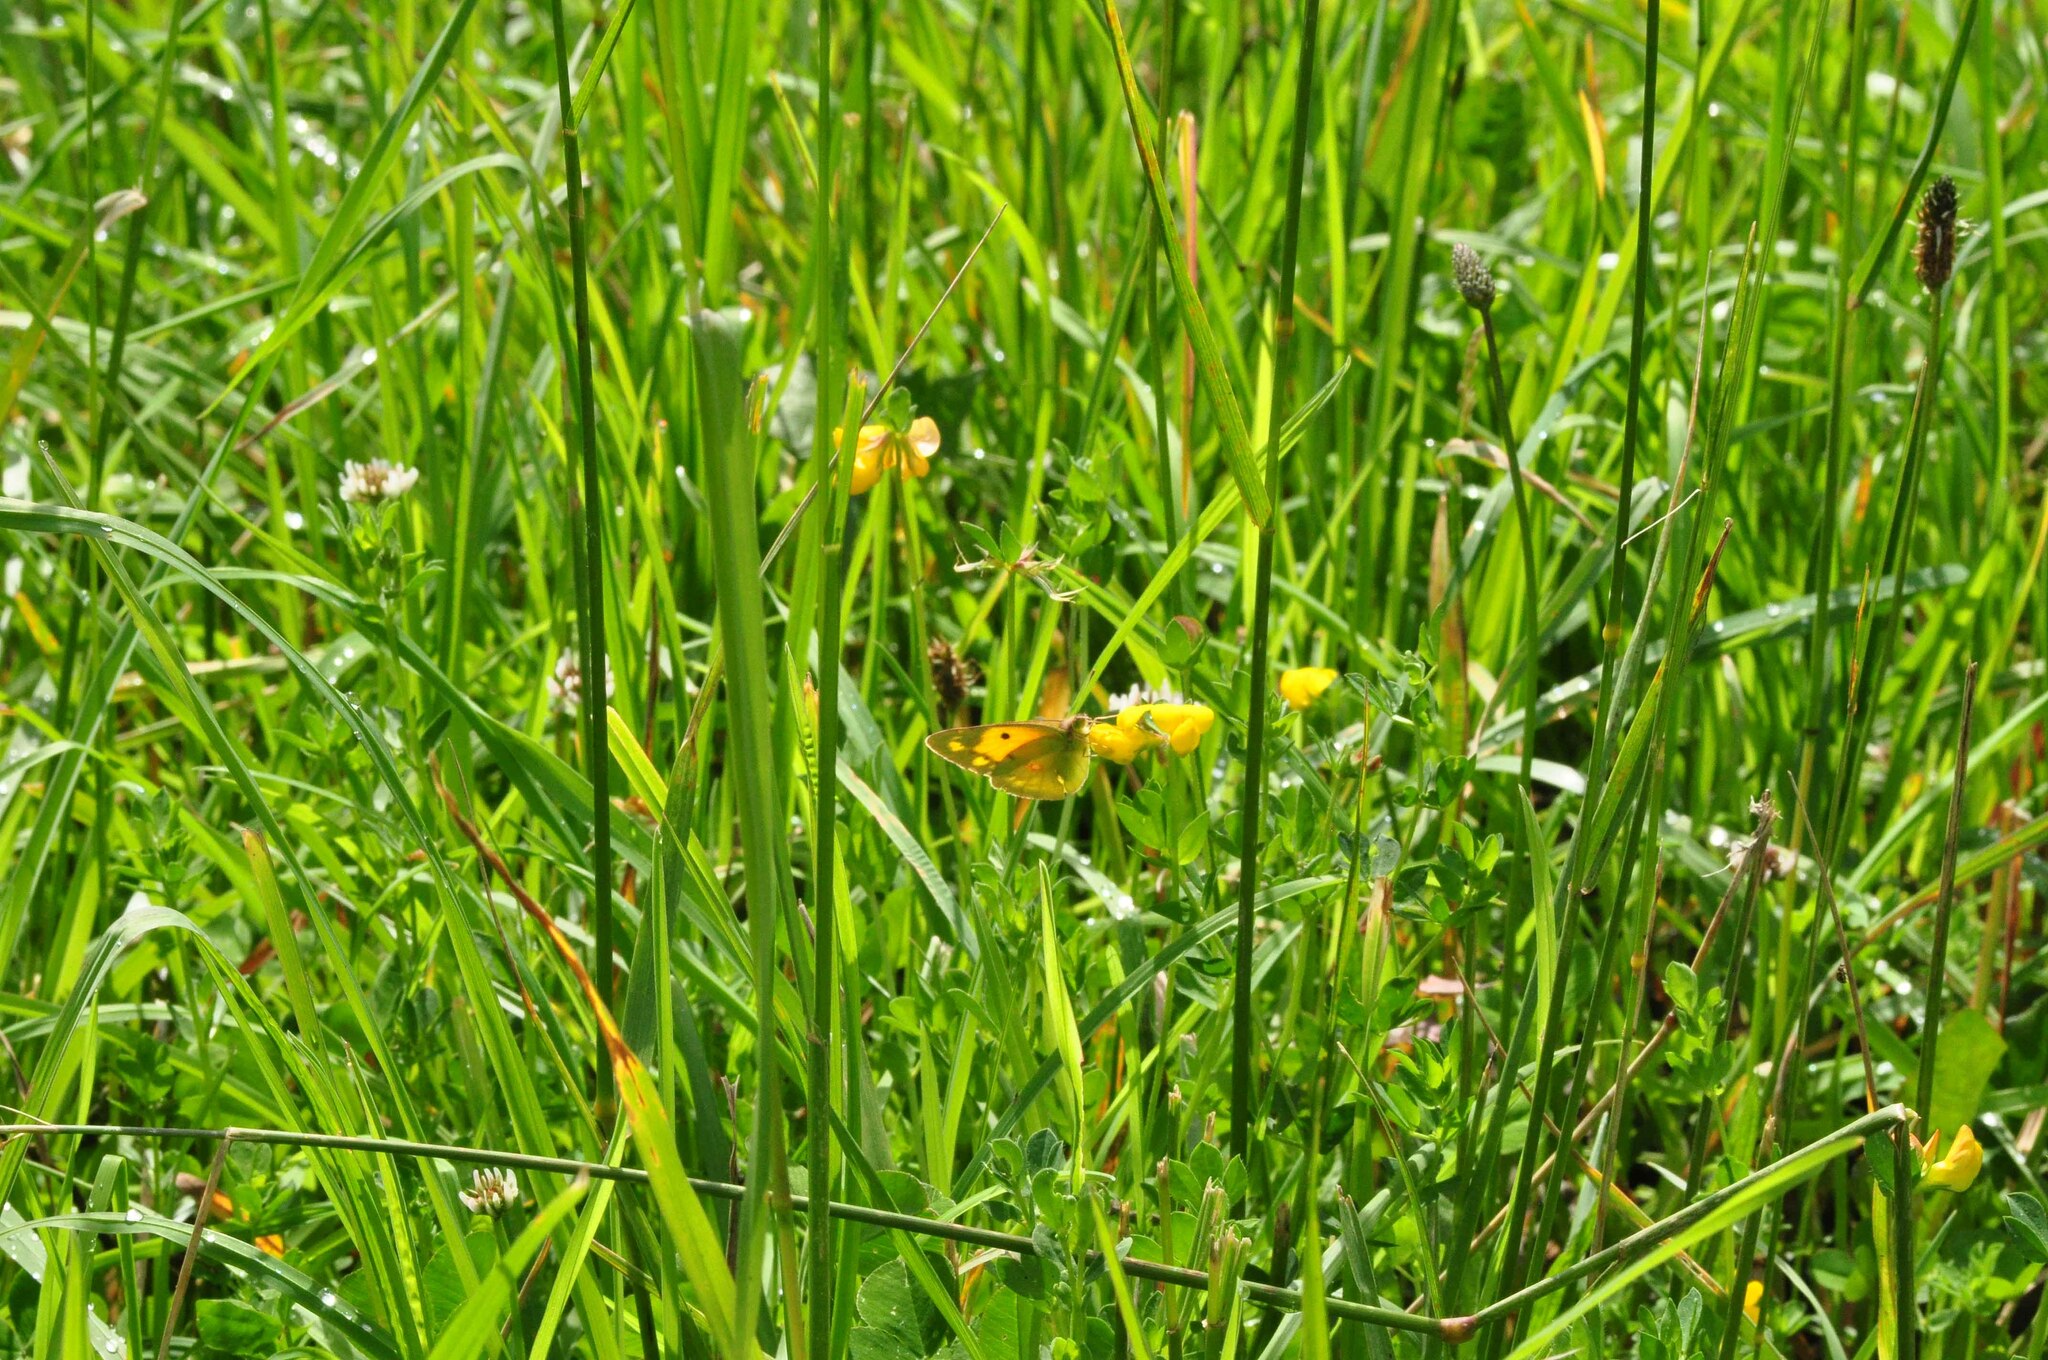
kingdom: Animalia
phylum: Arthropoda
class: Insecta
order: Lepidoptera
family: Pieridae
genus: Colias
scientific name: Colias croceus
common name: Clouded yellow
